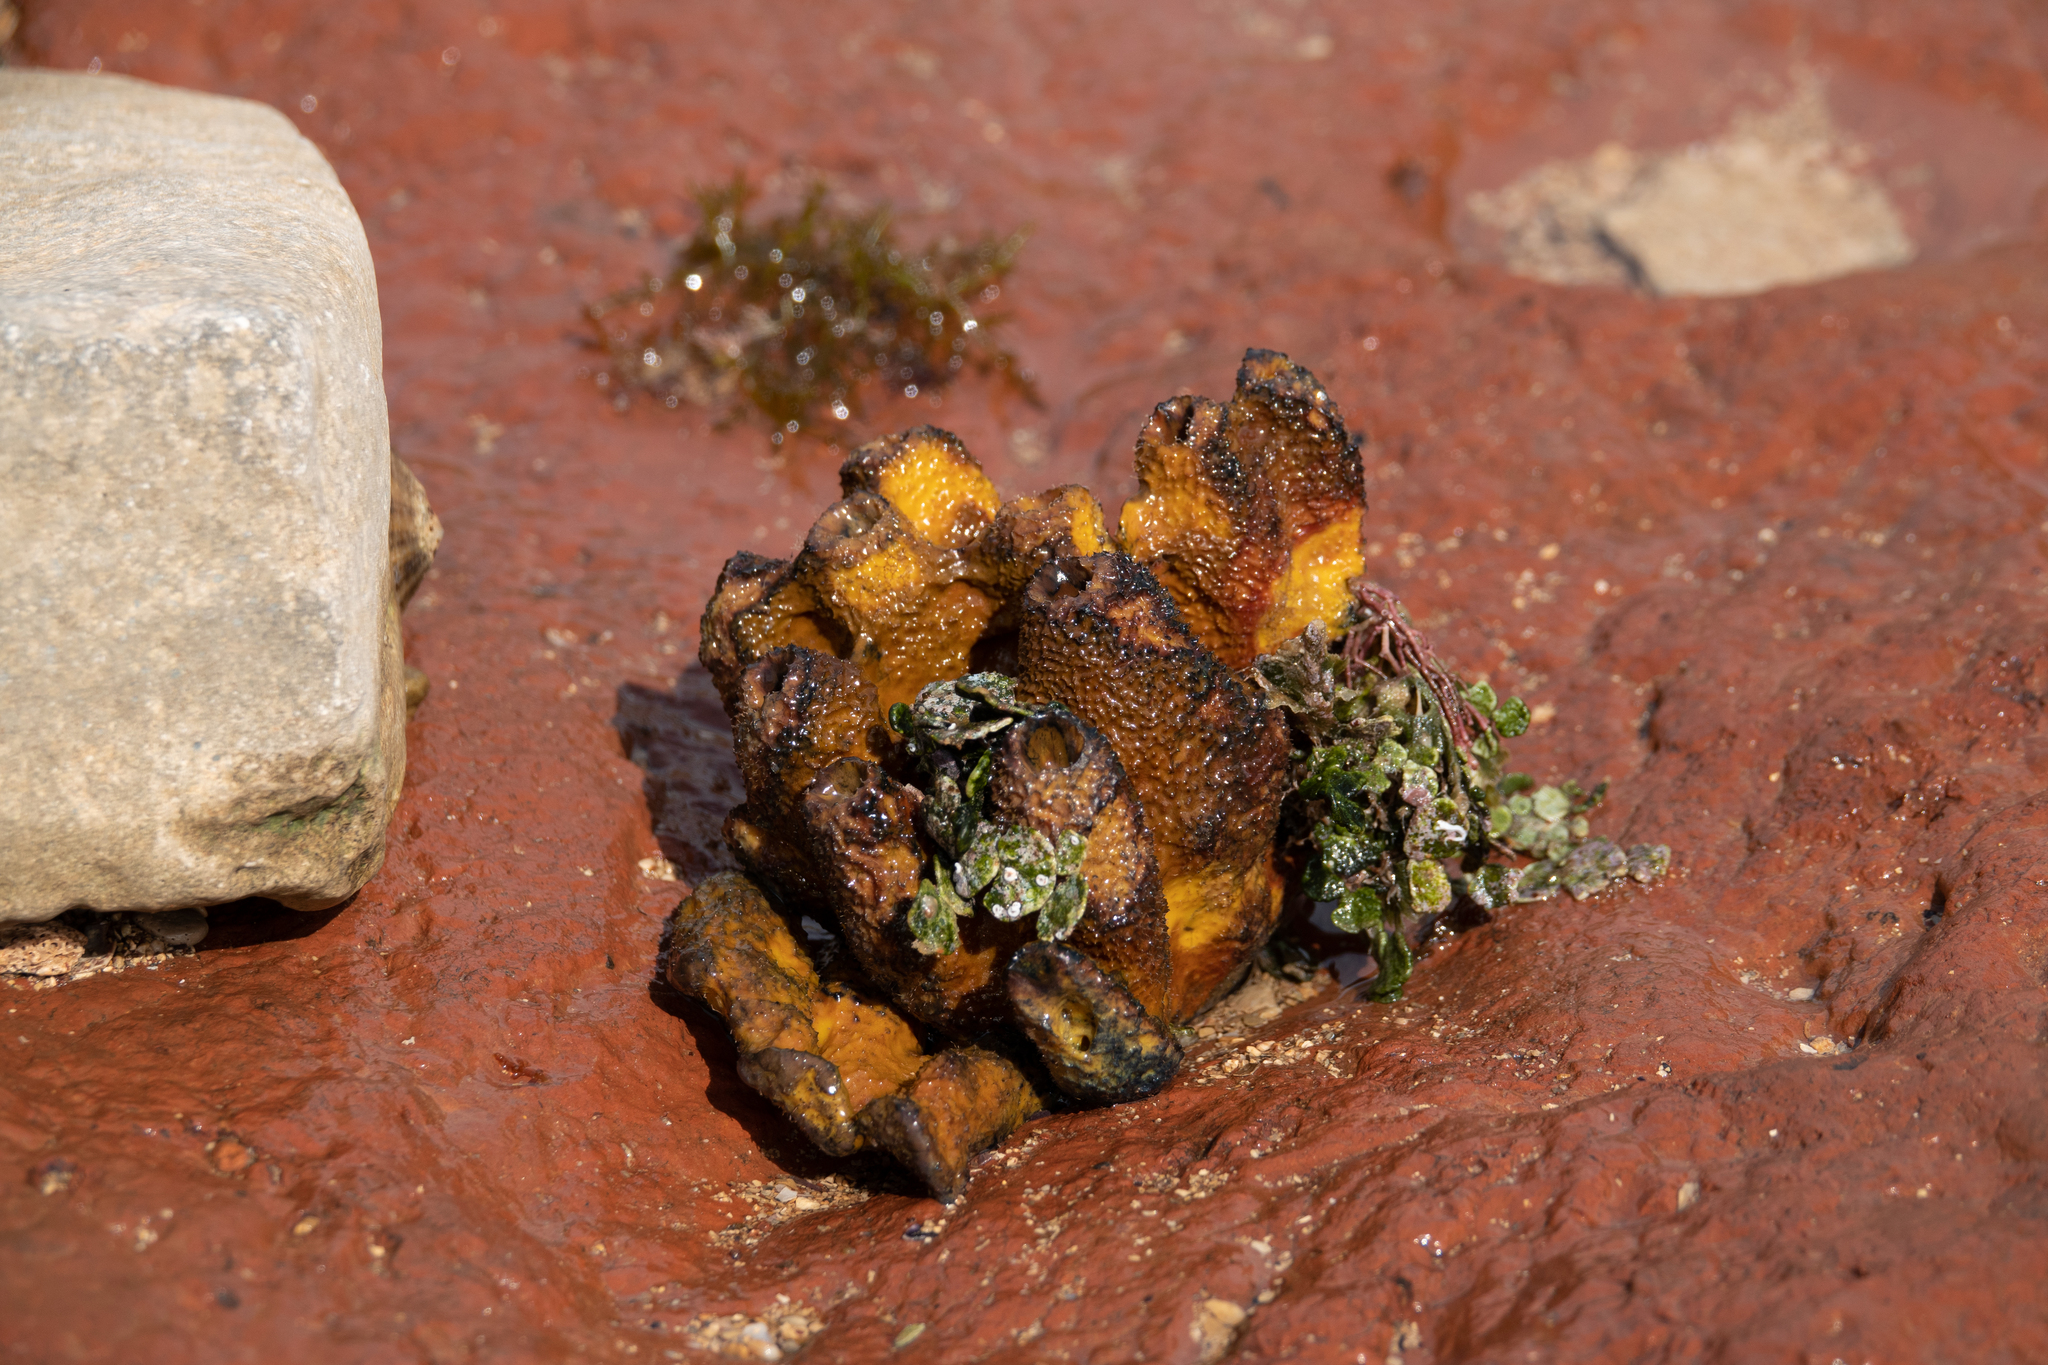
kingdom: Animalia
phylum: Porifera
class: Demospongiae
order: Verongiida
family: Aplysinidae
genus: Aplysina
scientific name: Aplysina aerophoba
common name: Aureate sponge
